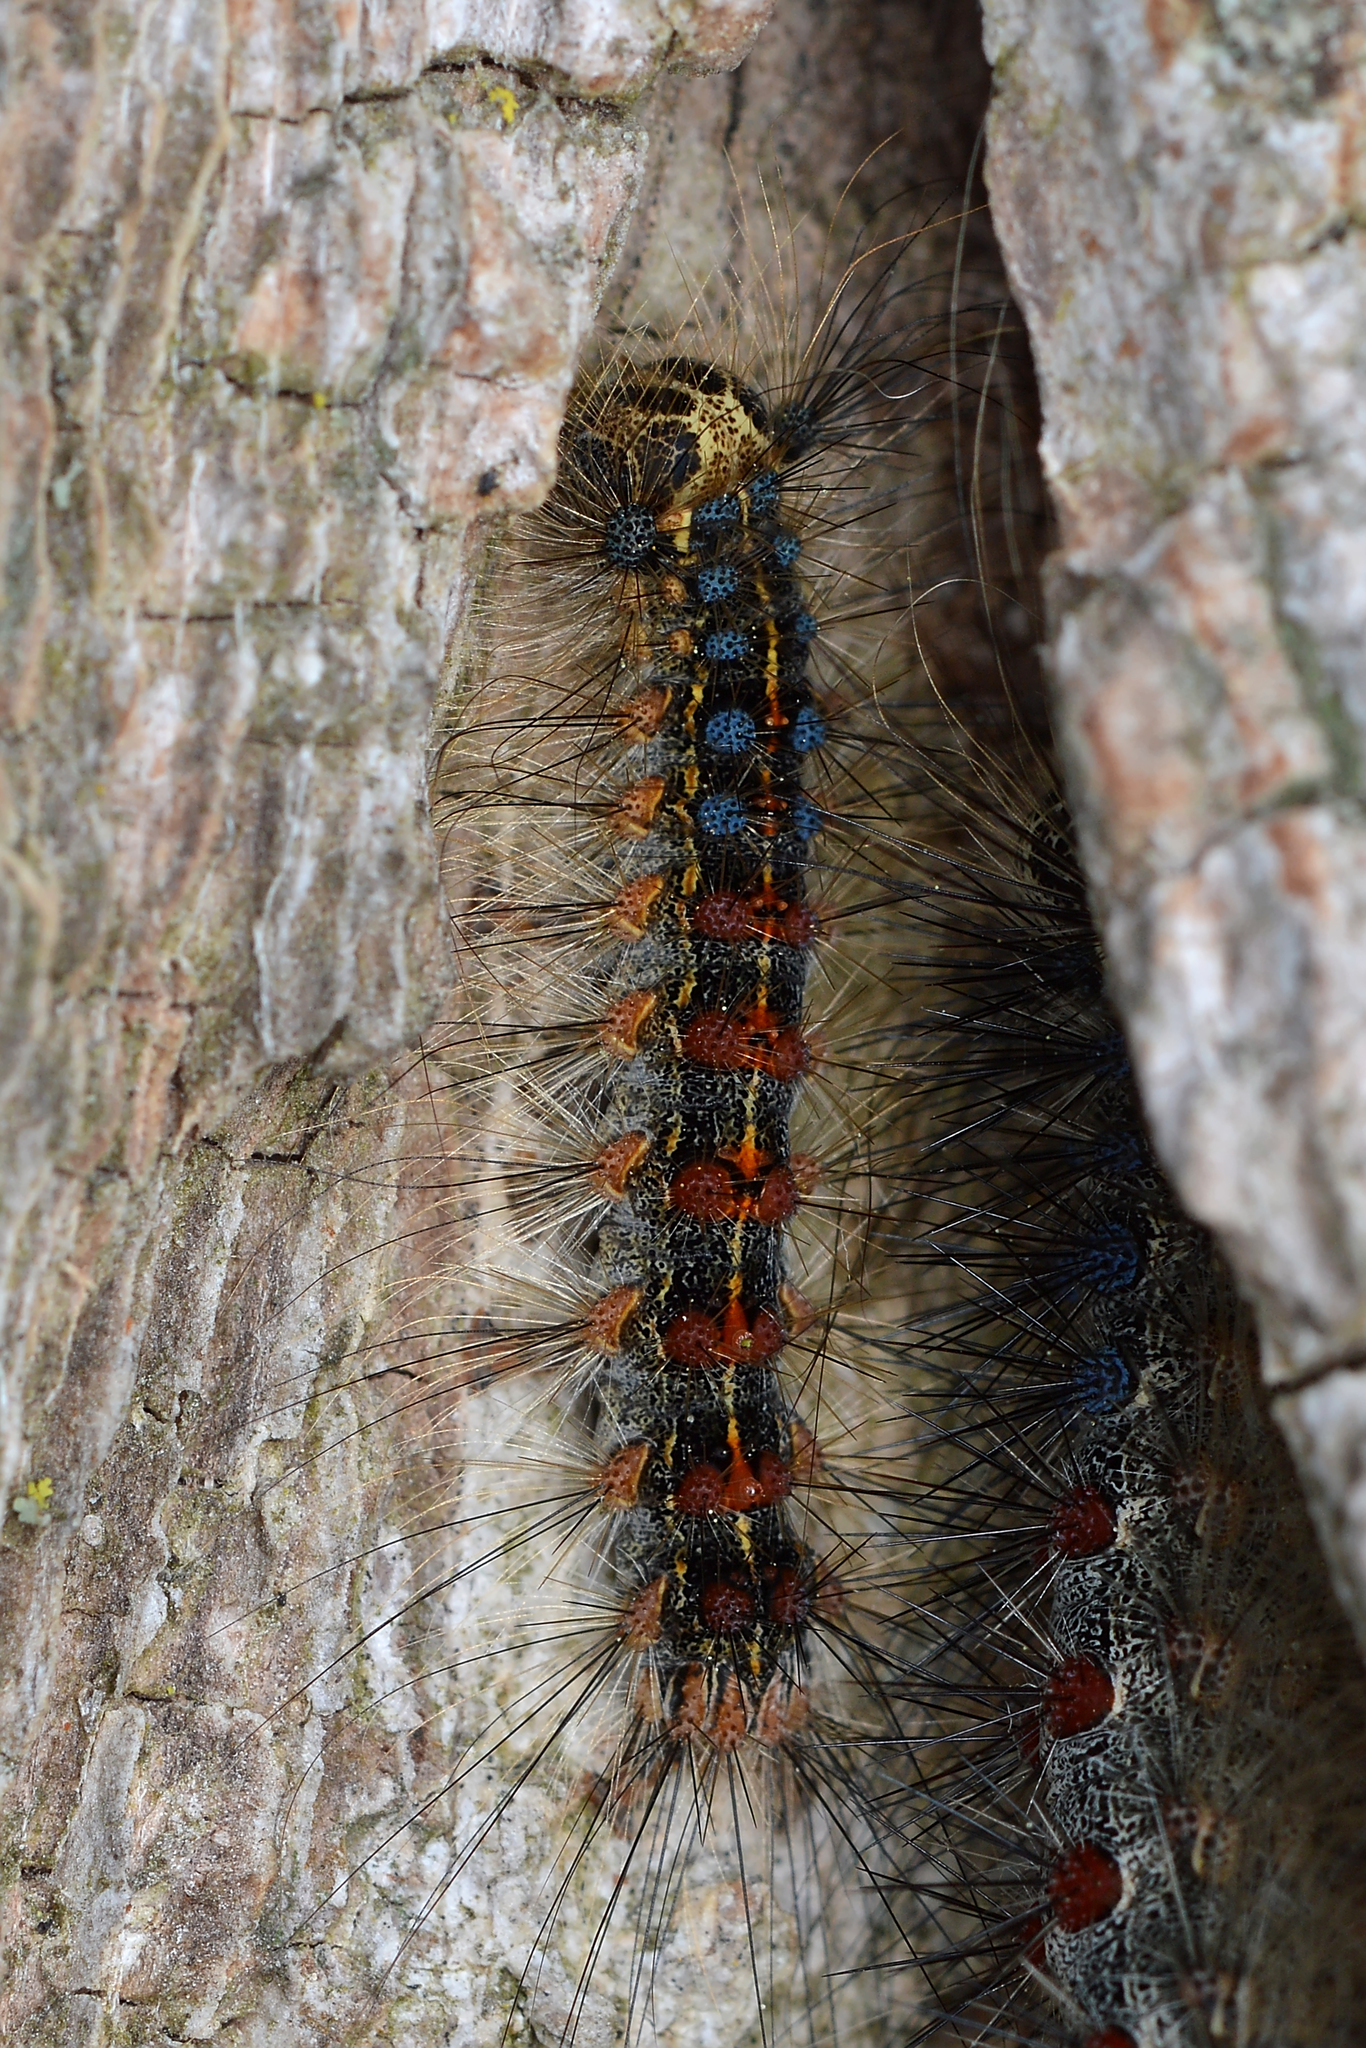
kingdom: Animalia
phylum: Arthropoda
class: Insecta
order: Lepidoptera
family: Erebidae
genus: Lymantria
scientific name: Lymantria dispar
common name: Gypsy moth
